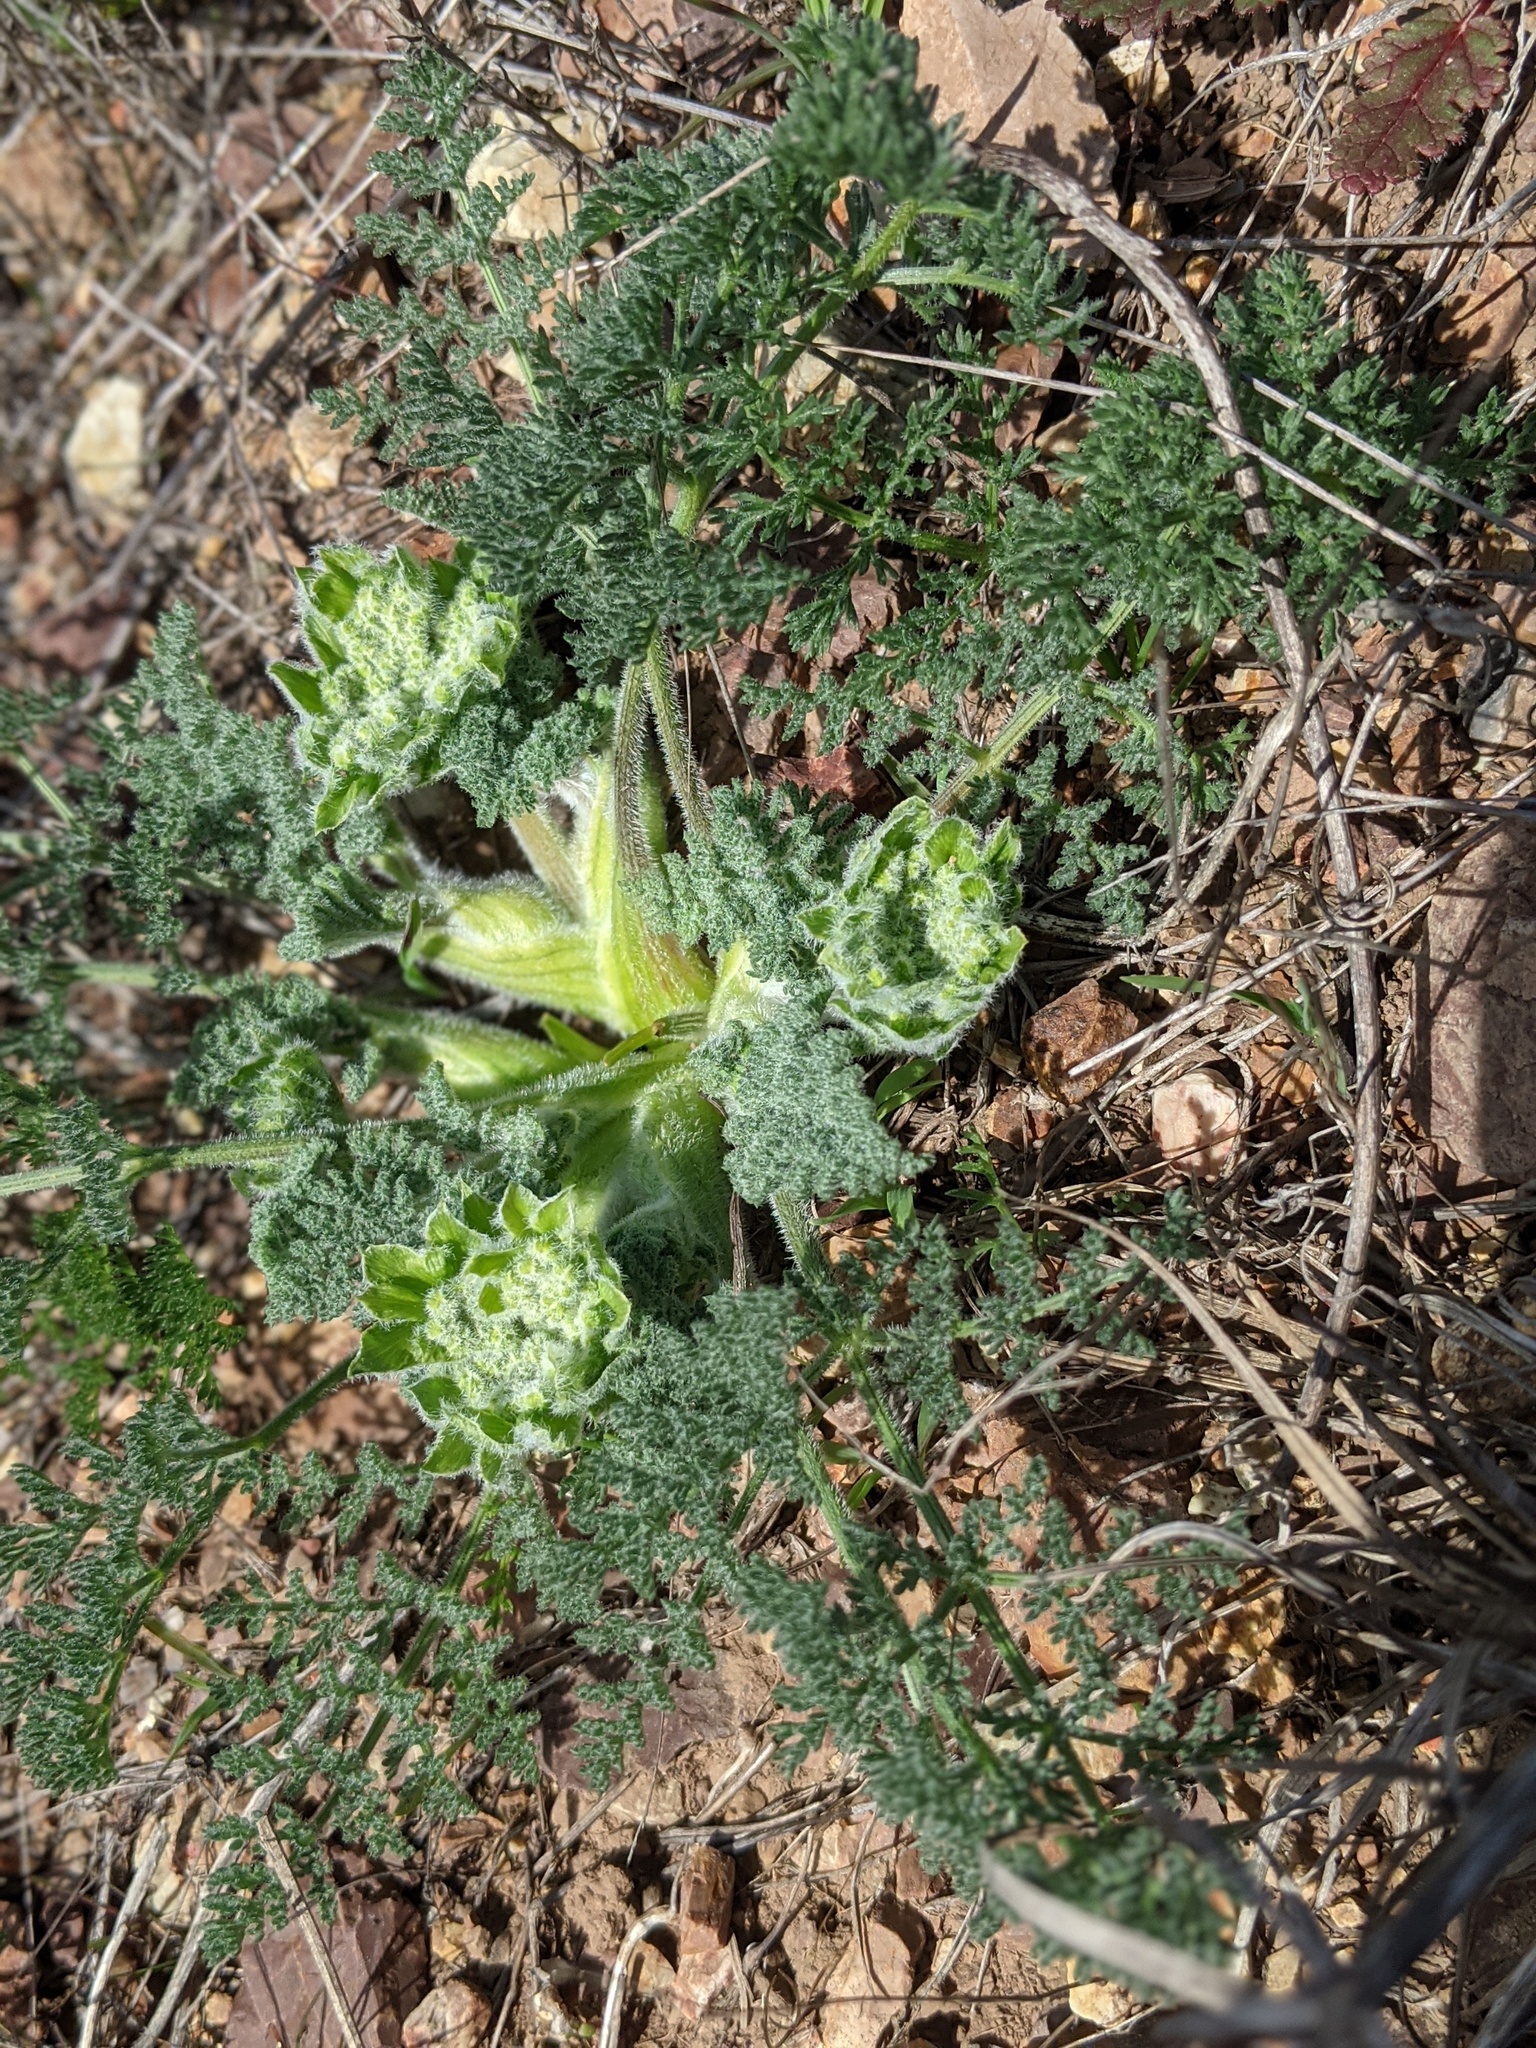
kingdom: Plantae
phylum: Tracheophyta
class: Magnoliopsida
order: Apiales
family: Apiaceae
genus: Lomatium
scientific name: Lomatium dasycarpum
